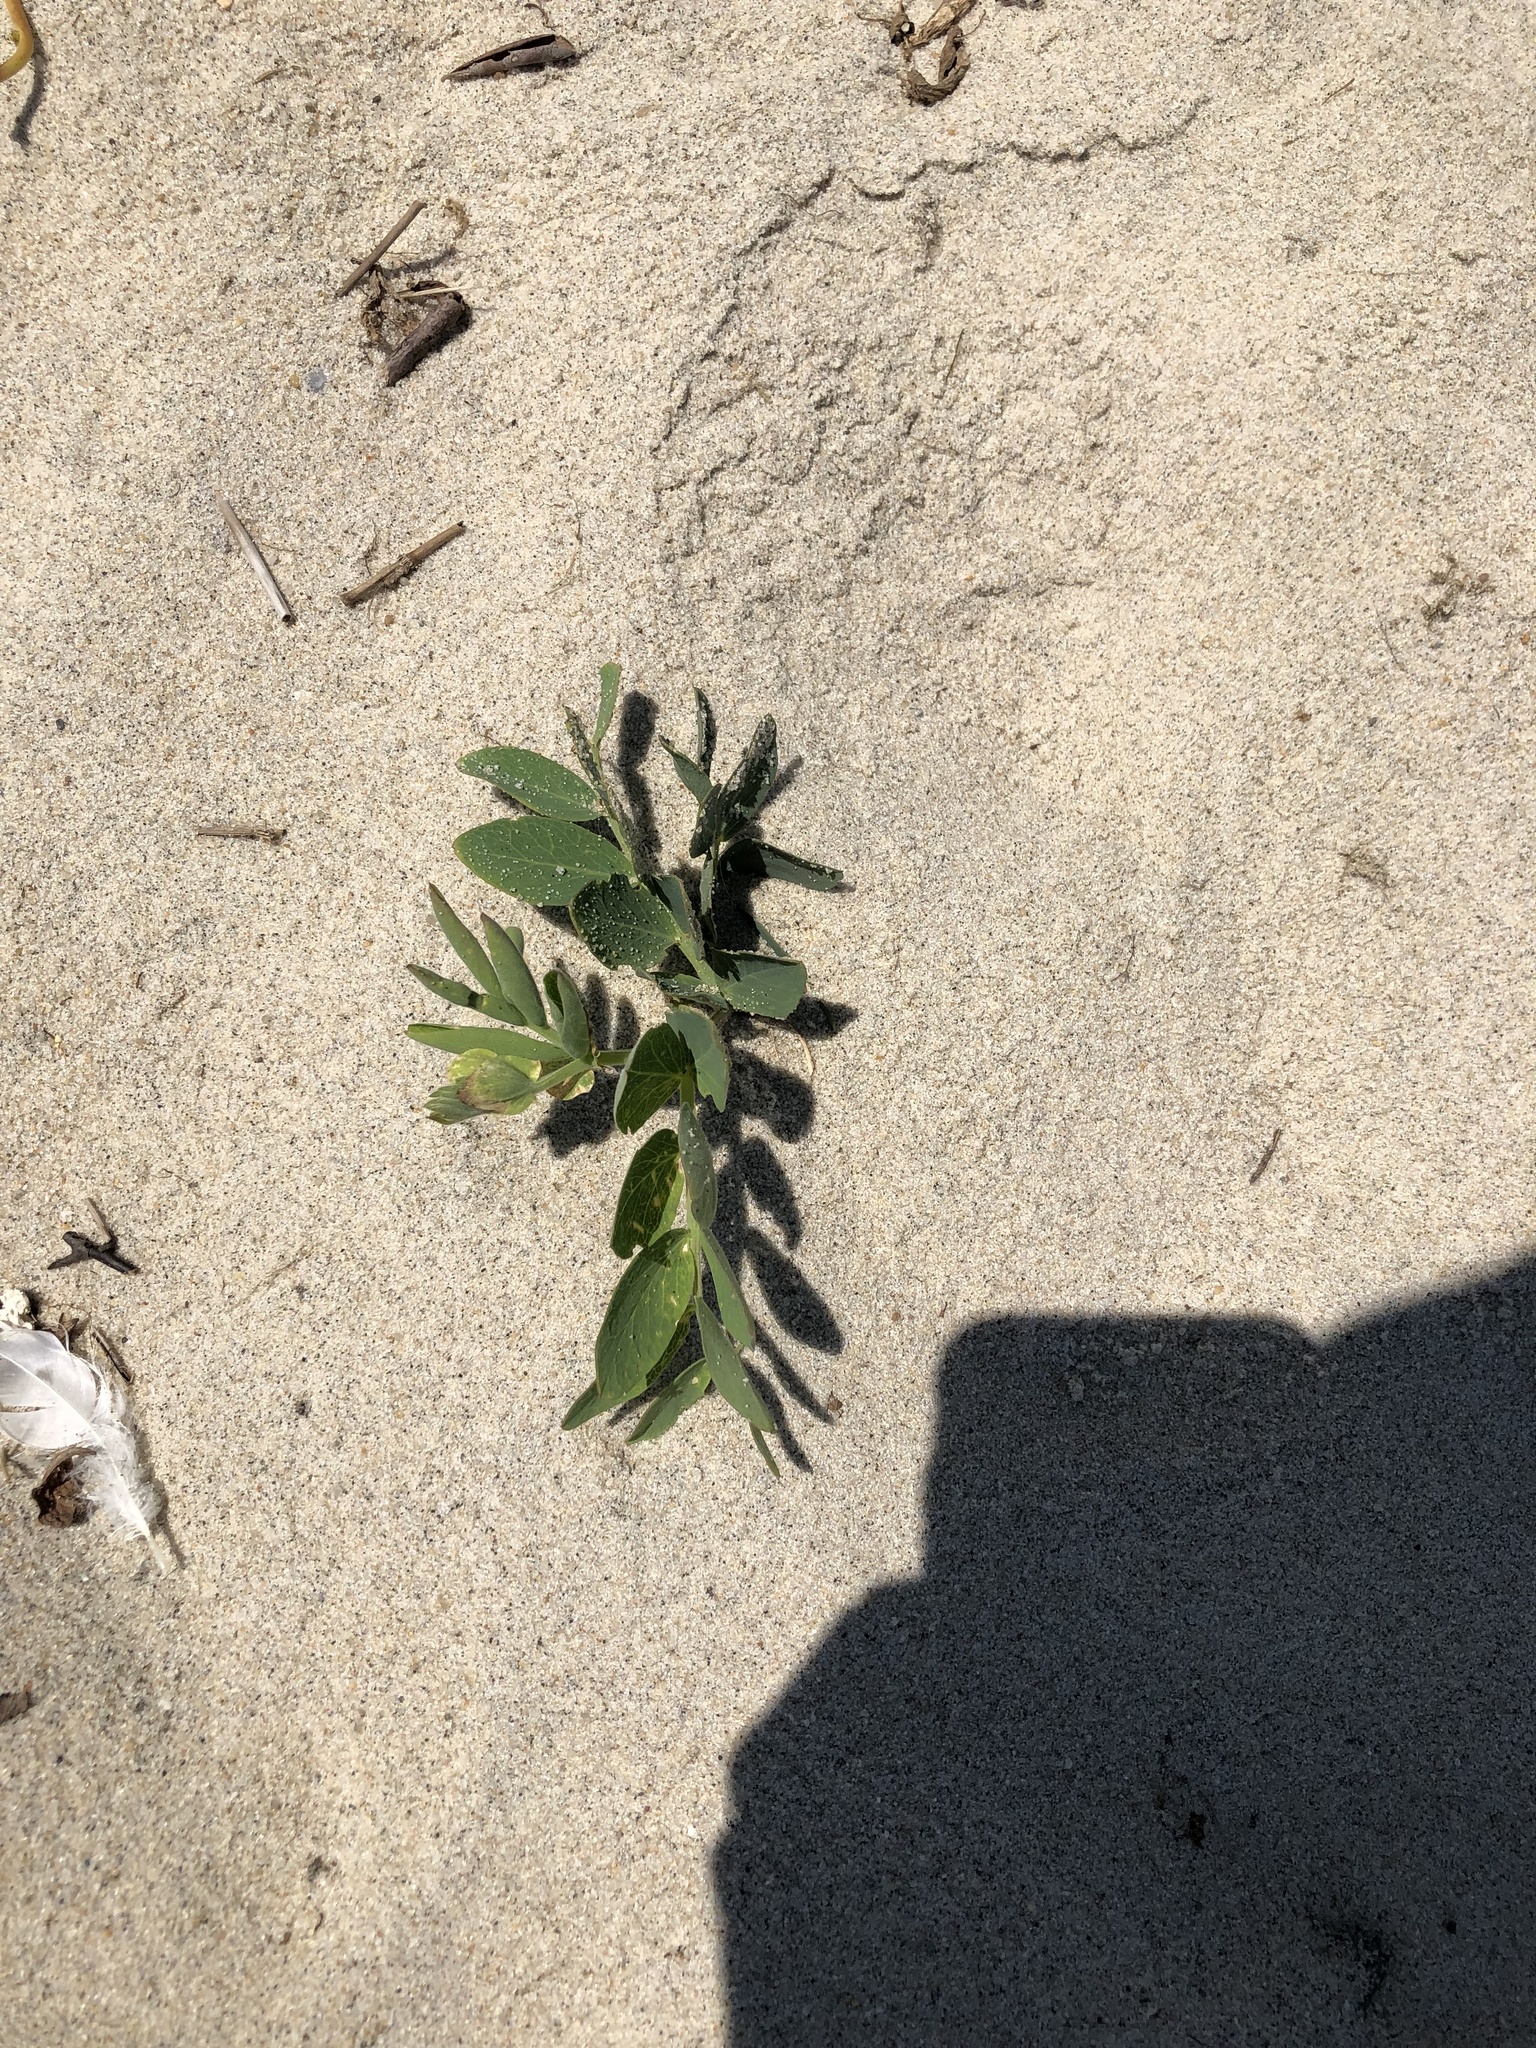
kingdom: Plantae
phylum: Tracheophyta
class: Magnoliopsida
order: Fabales
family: Fabaceae
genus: Lathyrus
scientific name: Lathyrus japonicus
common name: Sea pea
